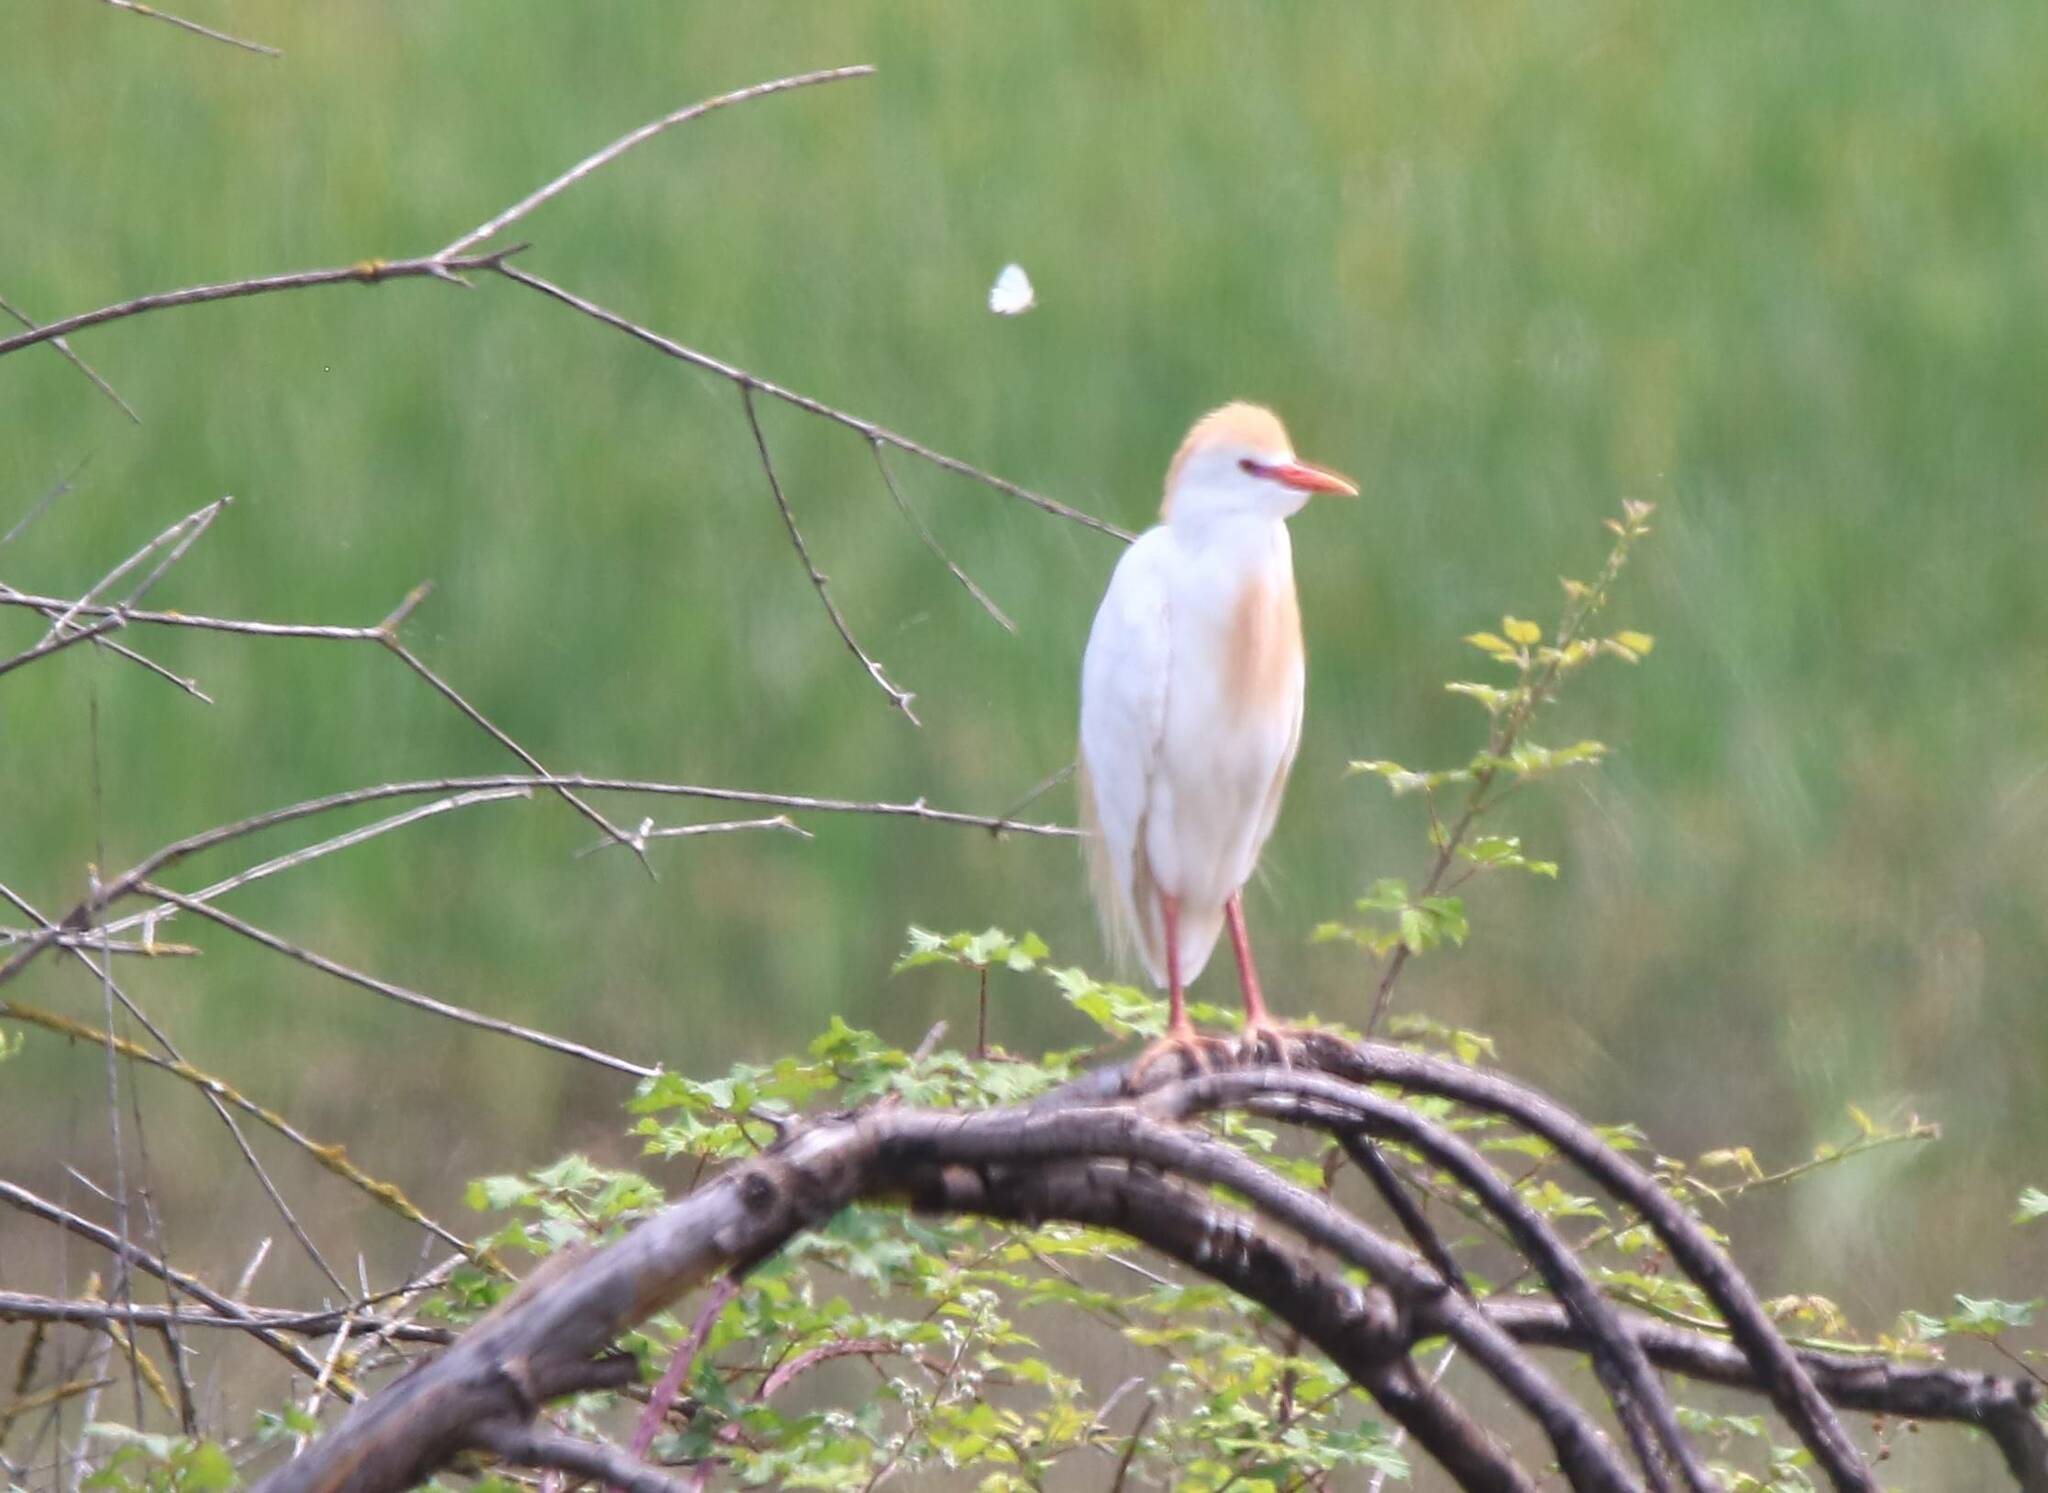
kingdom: Animalia
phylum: Chordata
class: Aves
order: Pelecaniformes
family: Ardeidae
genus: Bubulcus
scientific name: Bubulcus ibis
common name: Cattle egret
